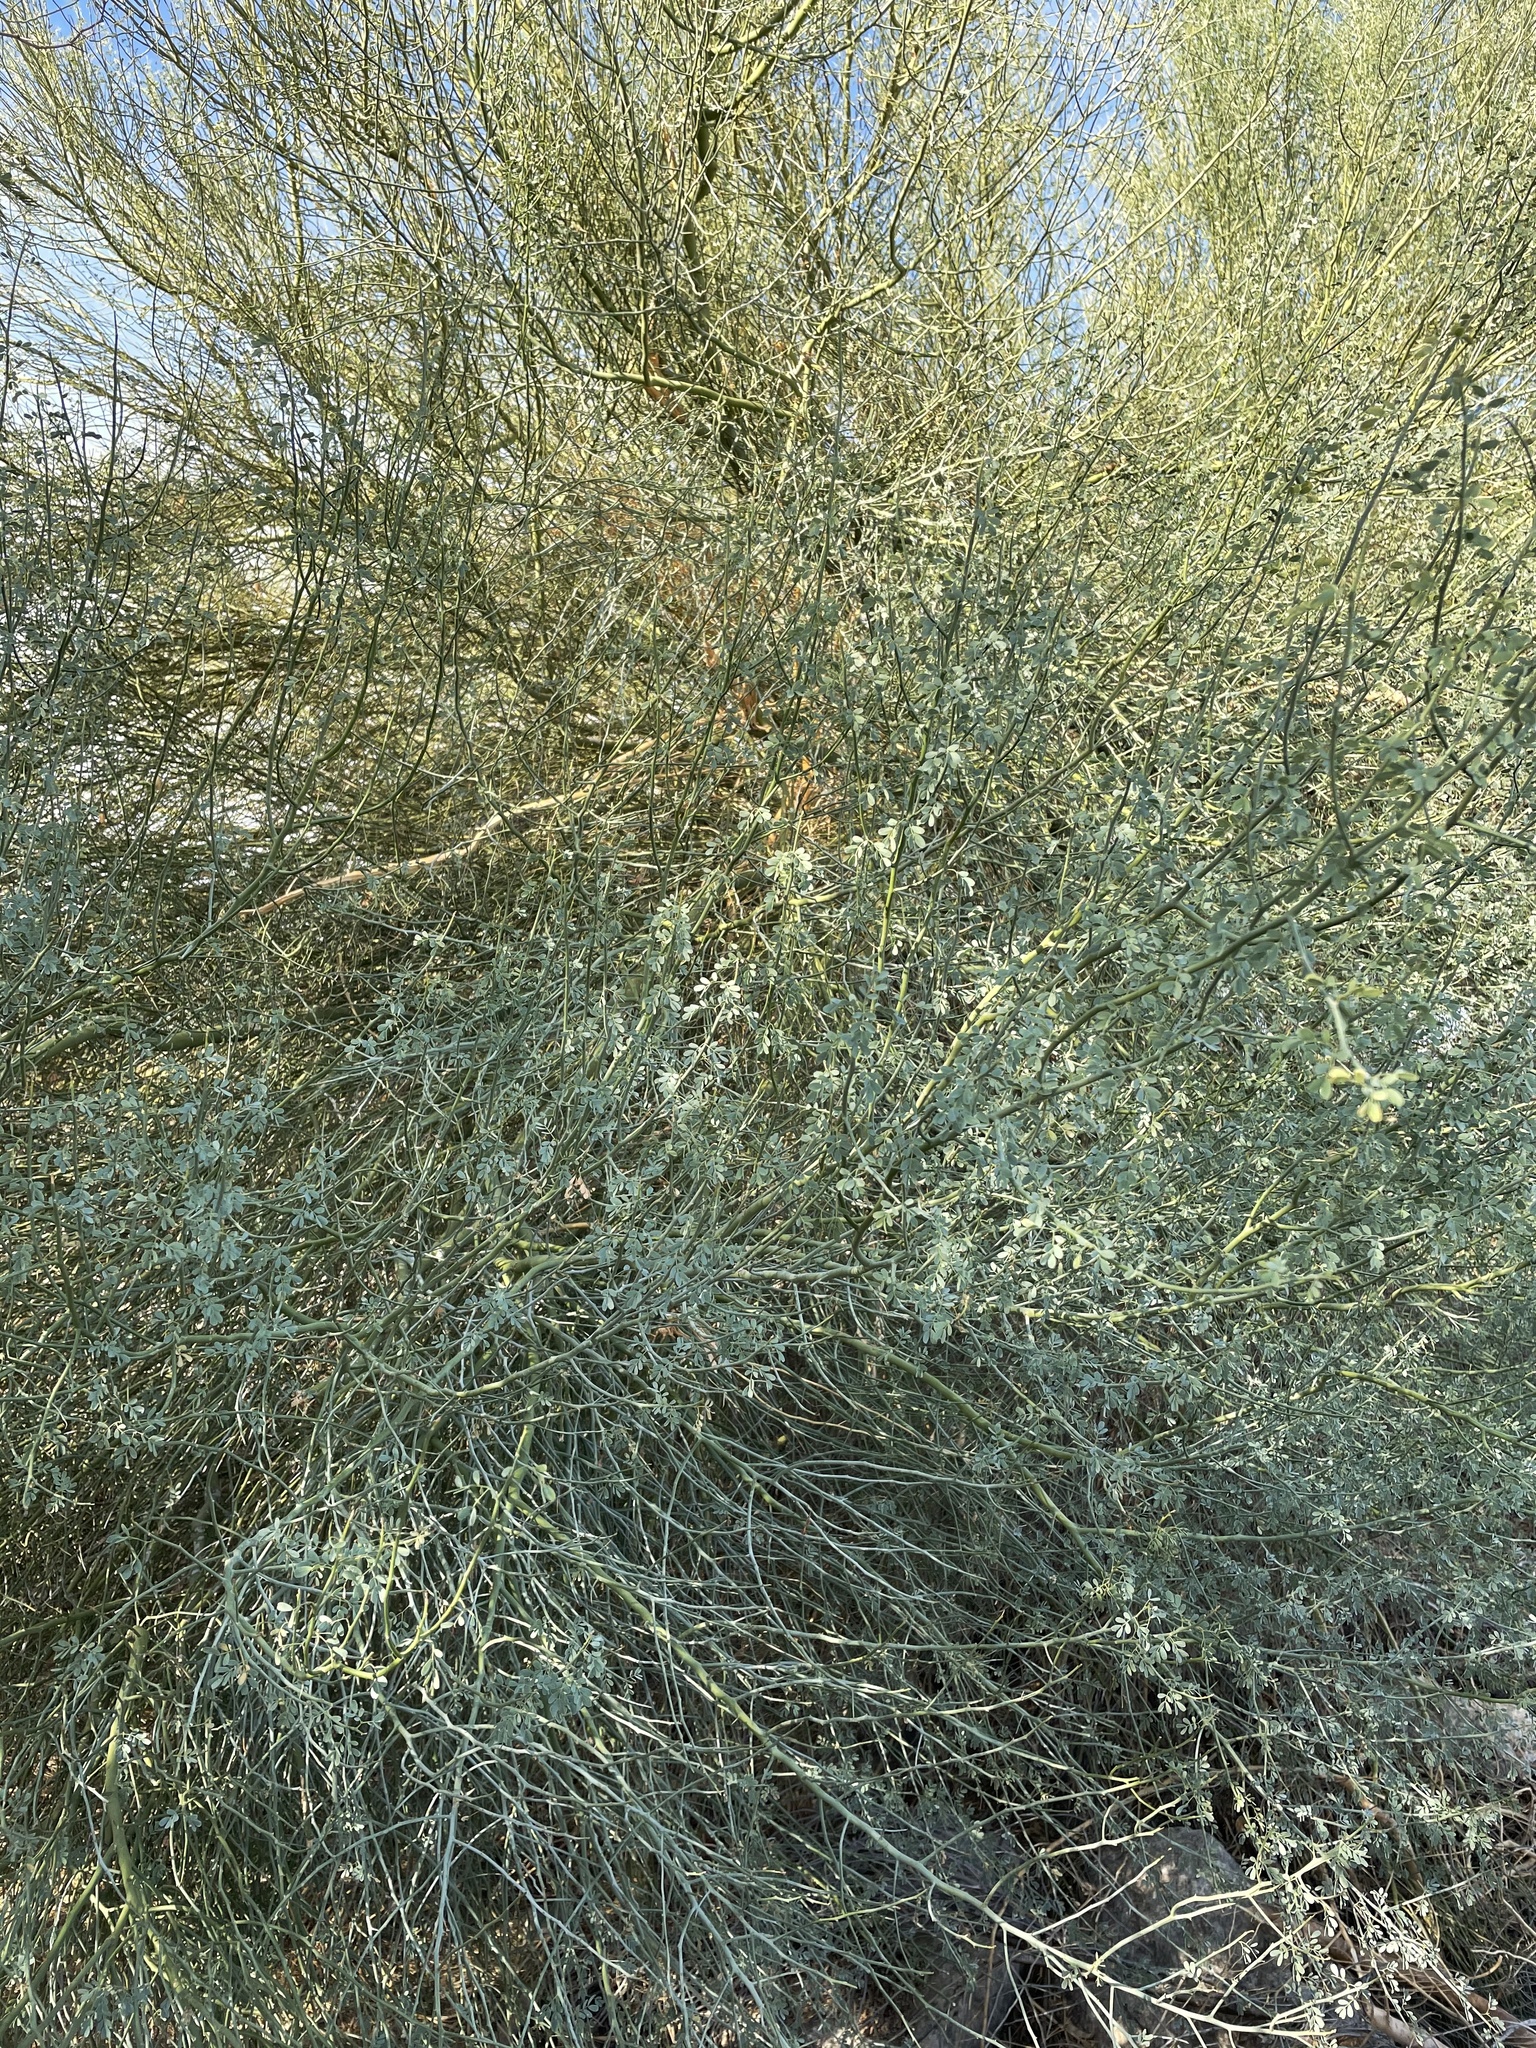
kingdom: Plantae
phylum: Tracheophyta
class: Magnoliopsida
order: Fabales
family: Fabaceae
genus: Parkinsonia
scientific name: Parkinsonia florida
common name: Blue paloverde
